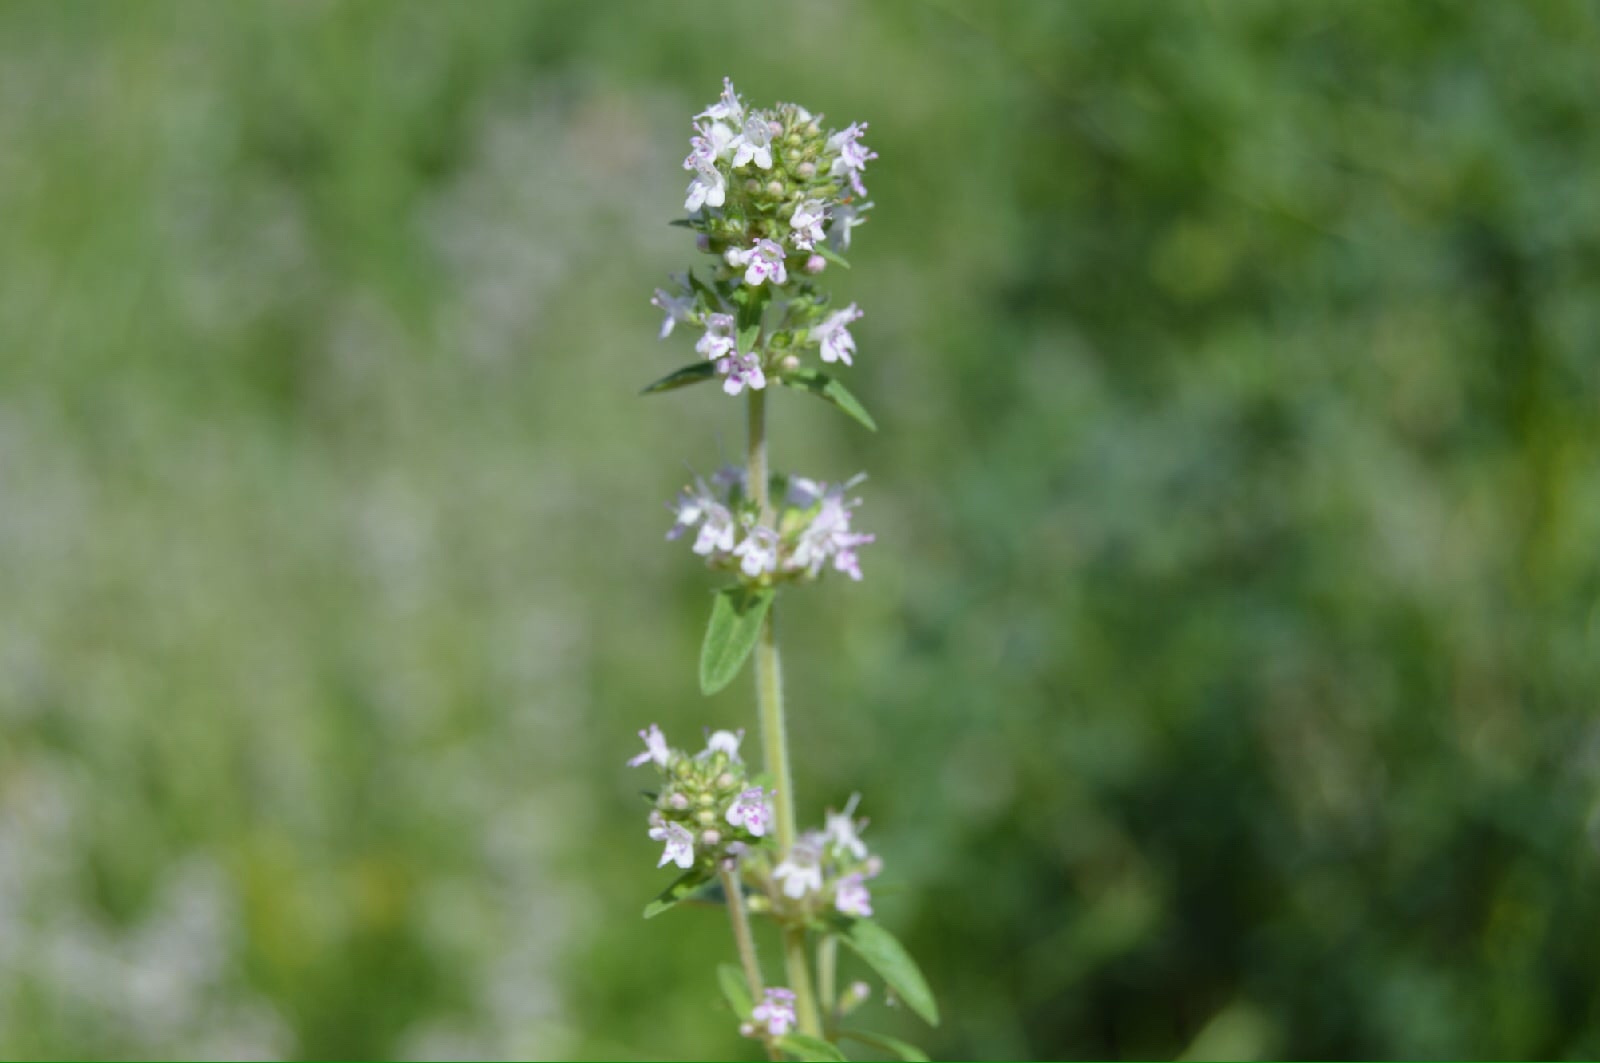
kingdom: Plantae
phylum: Tracheophyta
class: Magnoliopsida
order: Lamiales
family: Lamiaceae
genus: Thymus
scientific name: Thymus pannonicus
